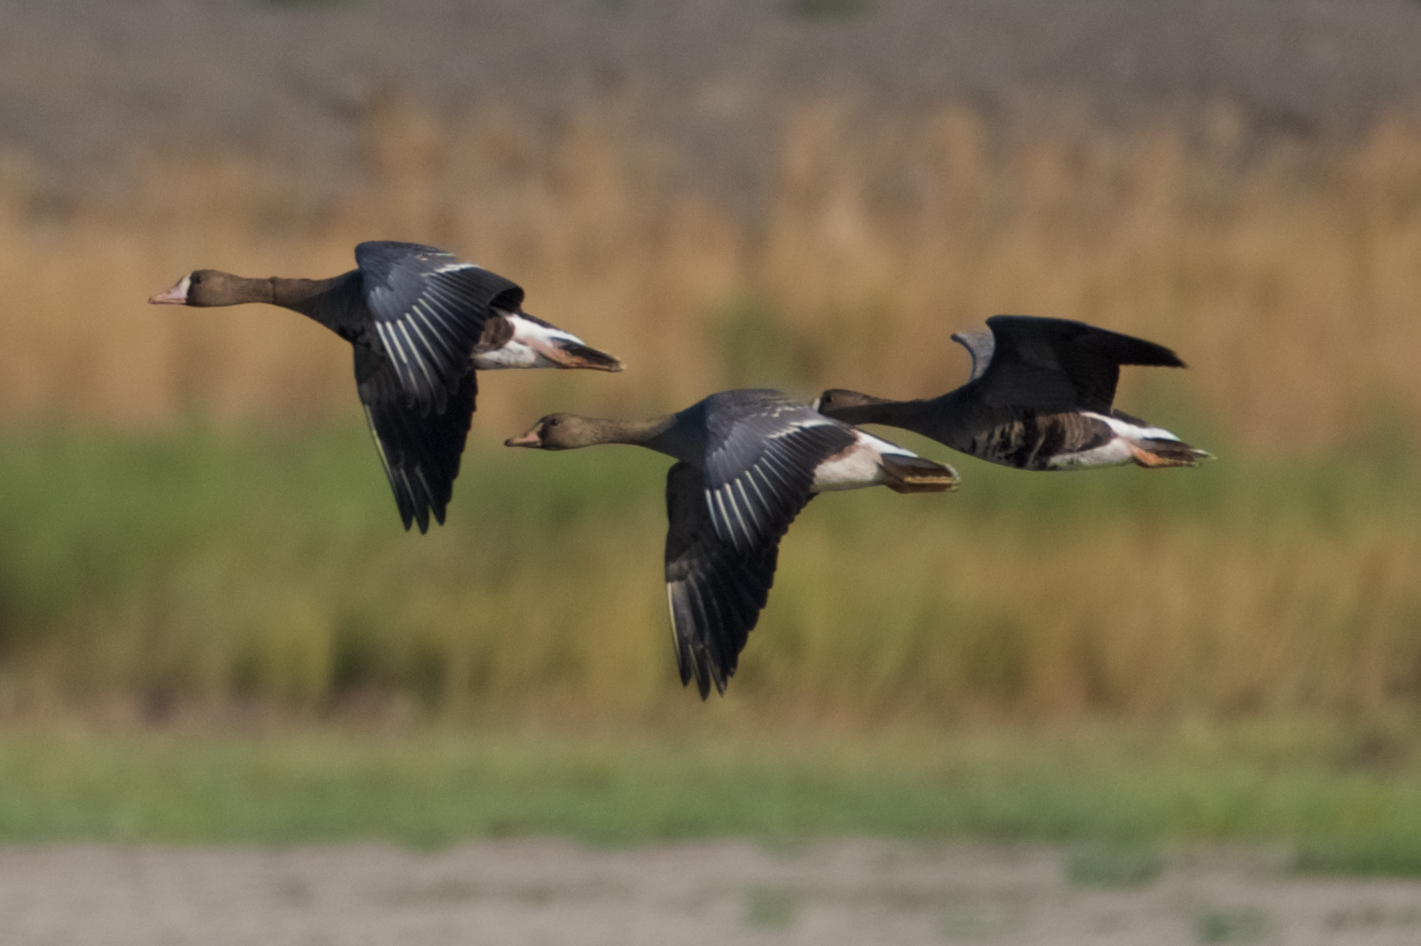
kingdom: Animalia
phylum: Chordata
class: Aves
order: Anseriformes
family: Anatidae
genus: Anser
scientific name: Anser albifrons
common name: Greater white-fronted goose
